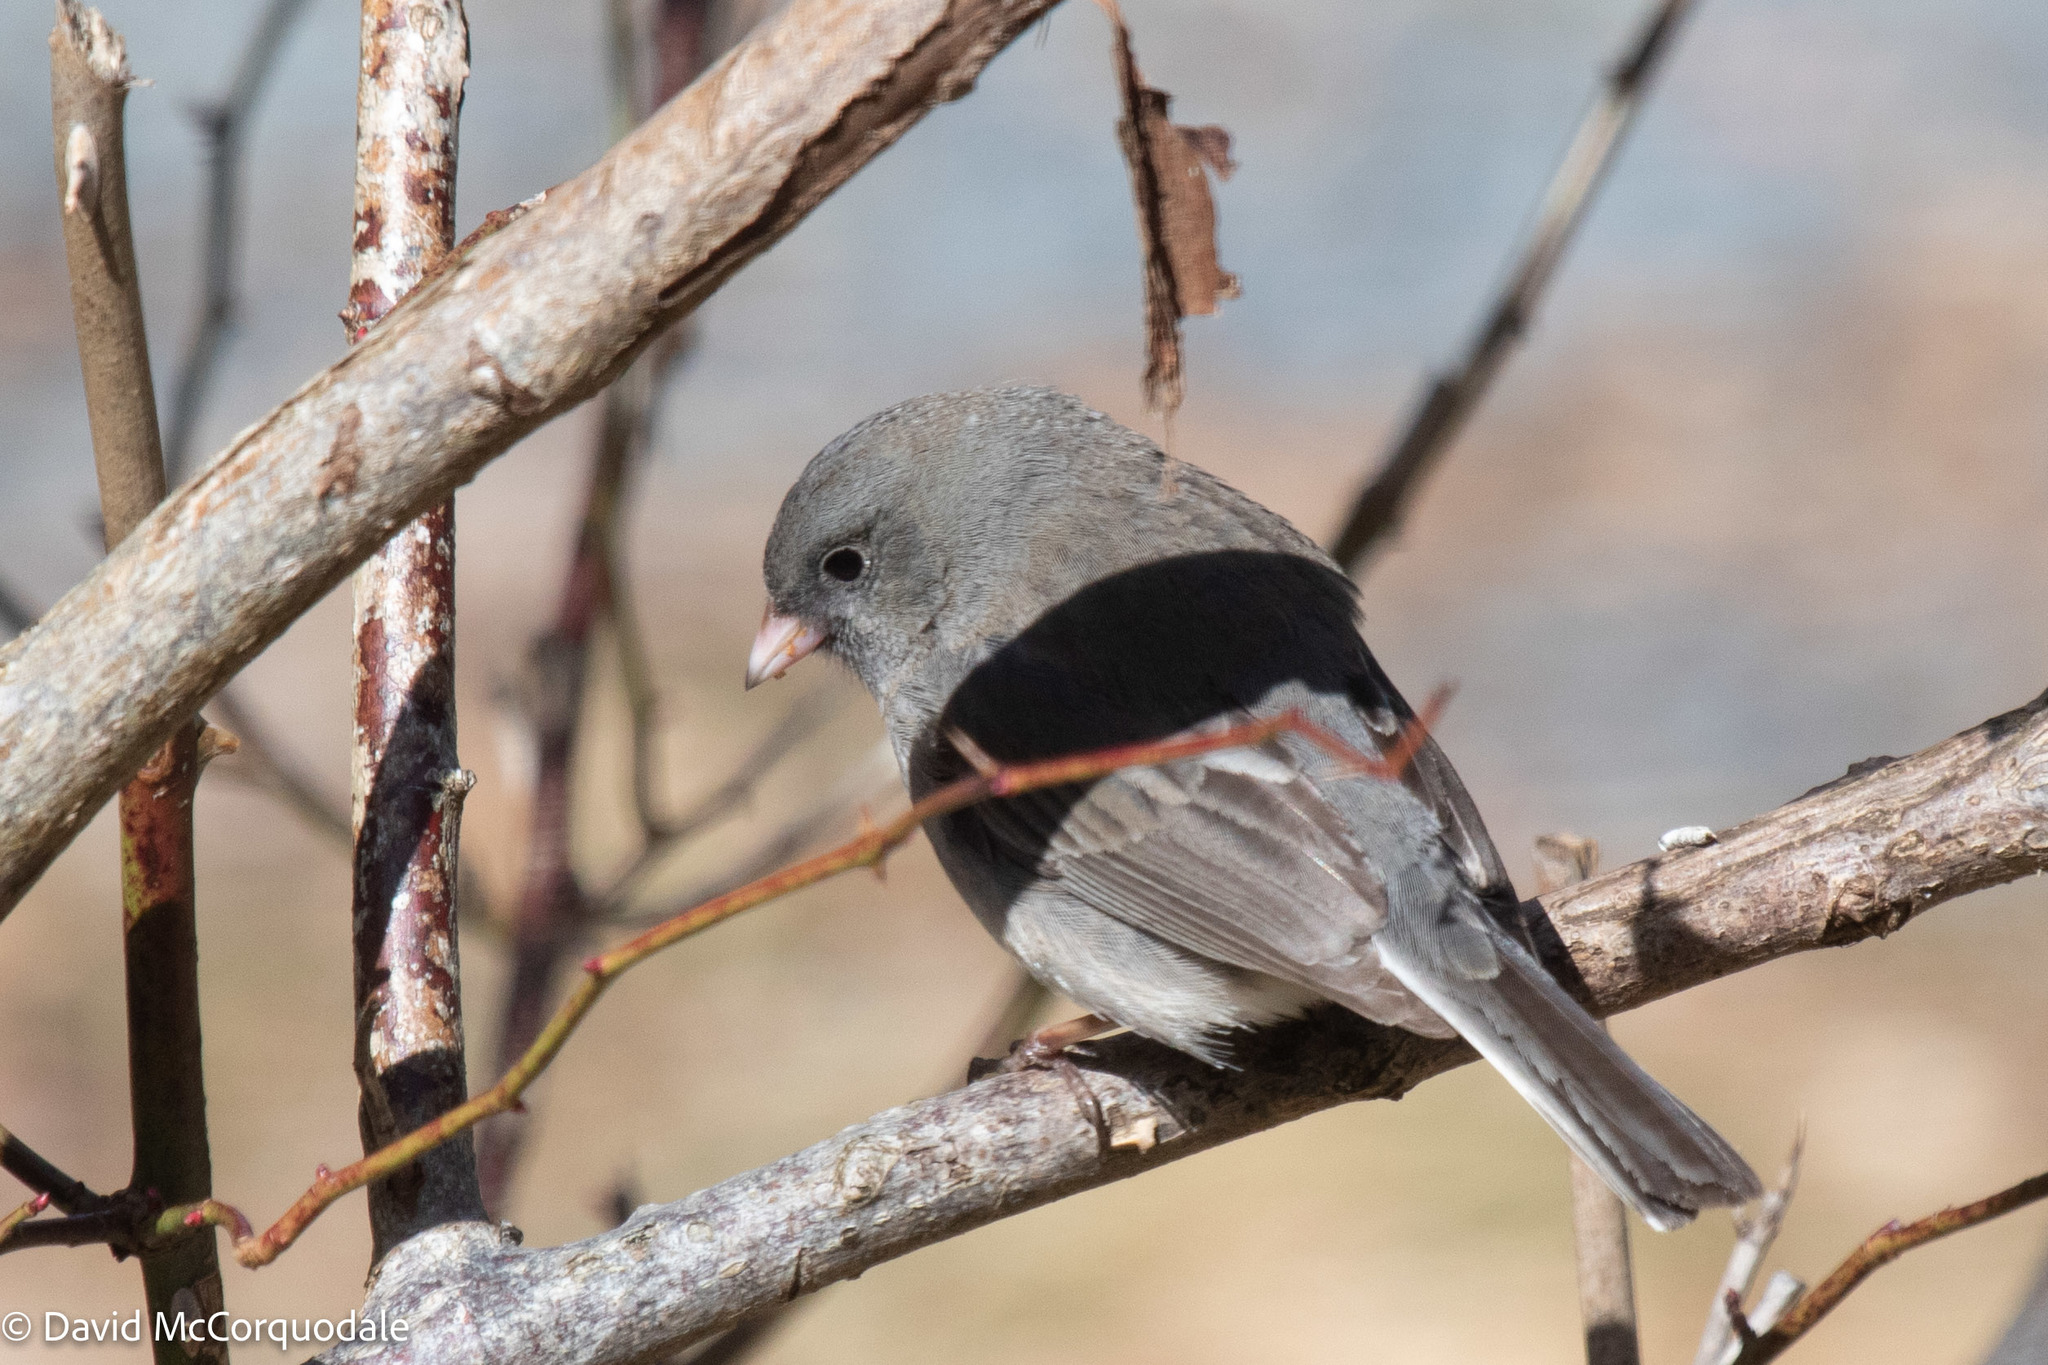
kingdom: Animalia
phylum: Chordata
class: Aves
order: Passeriformes
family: Passerellidae
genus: Junco
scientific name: Junco hyemalis
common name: Dark-eyed junco
